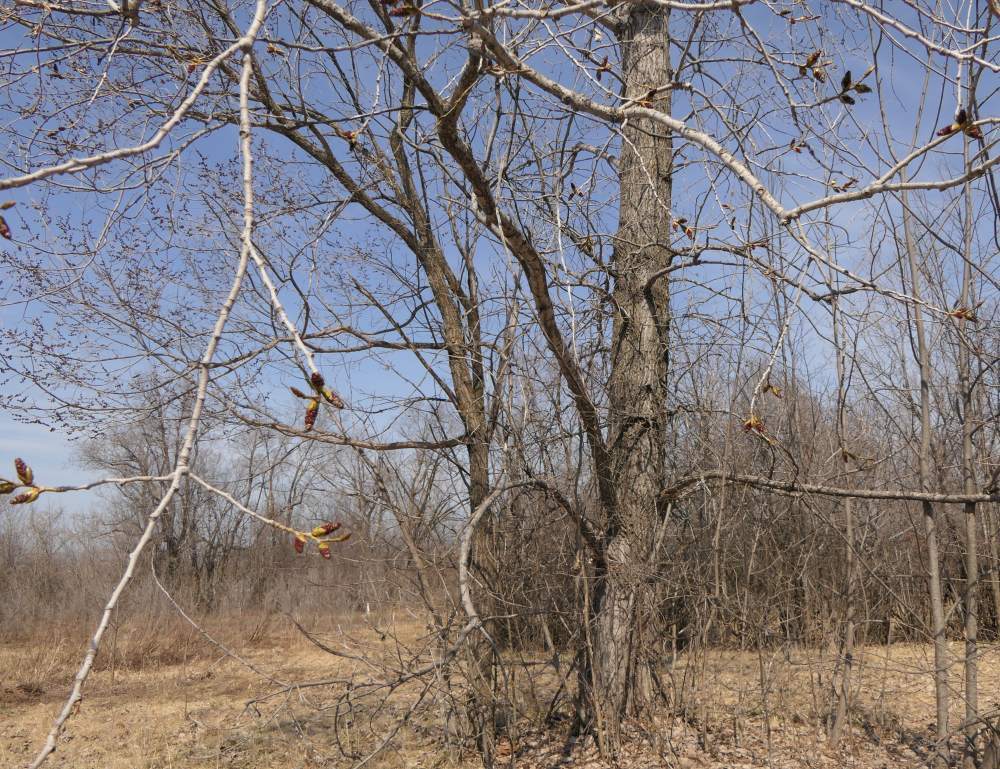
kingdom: Plantae
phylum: Tracheophyta
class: Magnoliopsida
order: Malpighiales
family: Salicaceae
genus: Populus
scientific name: Populus deltoides
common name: Eastern cottonwood
